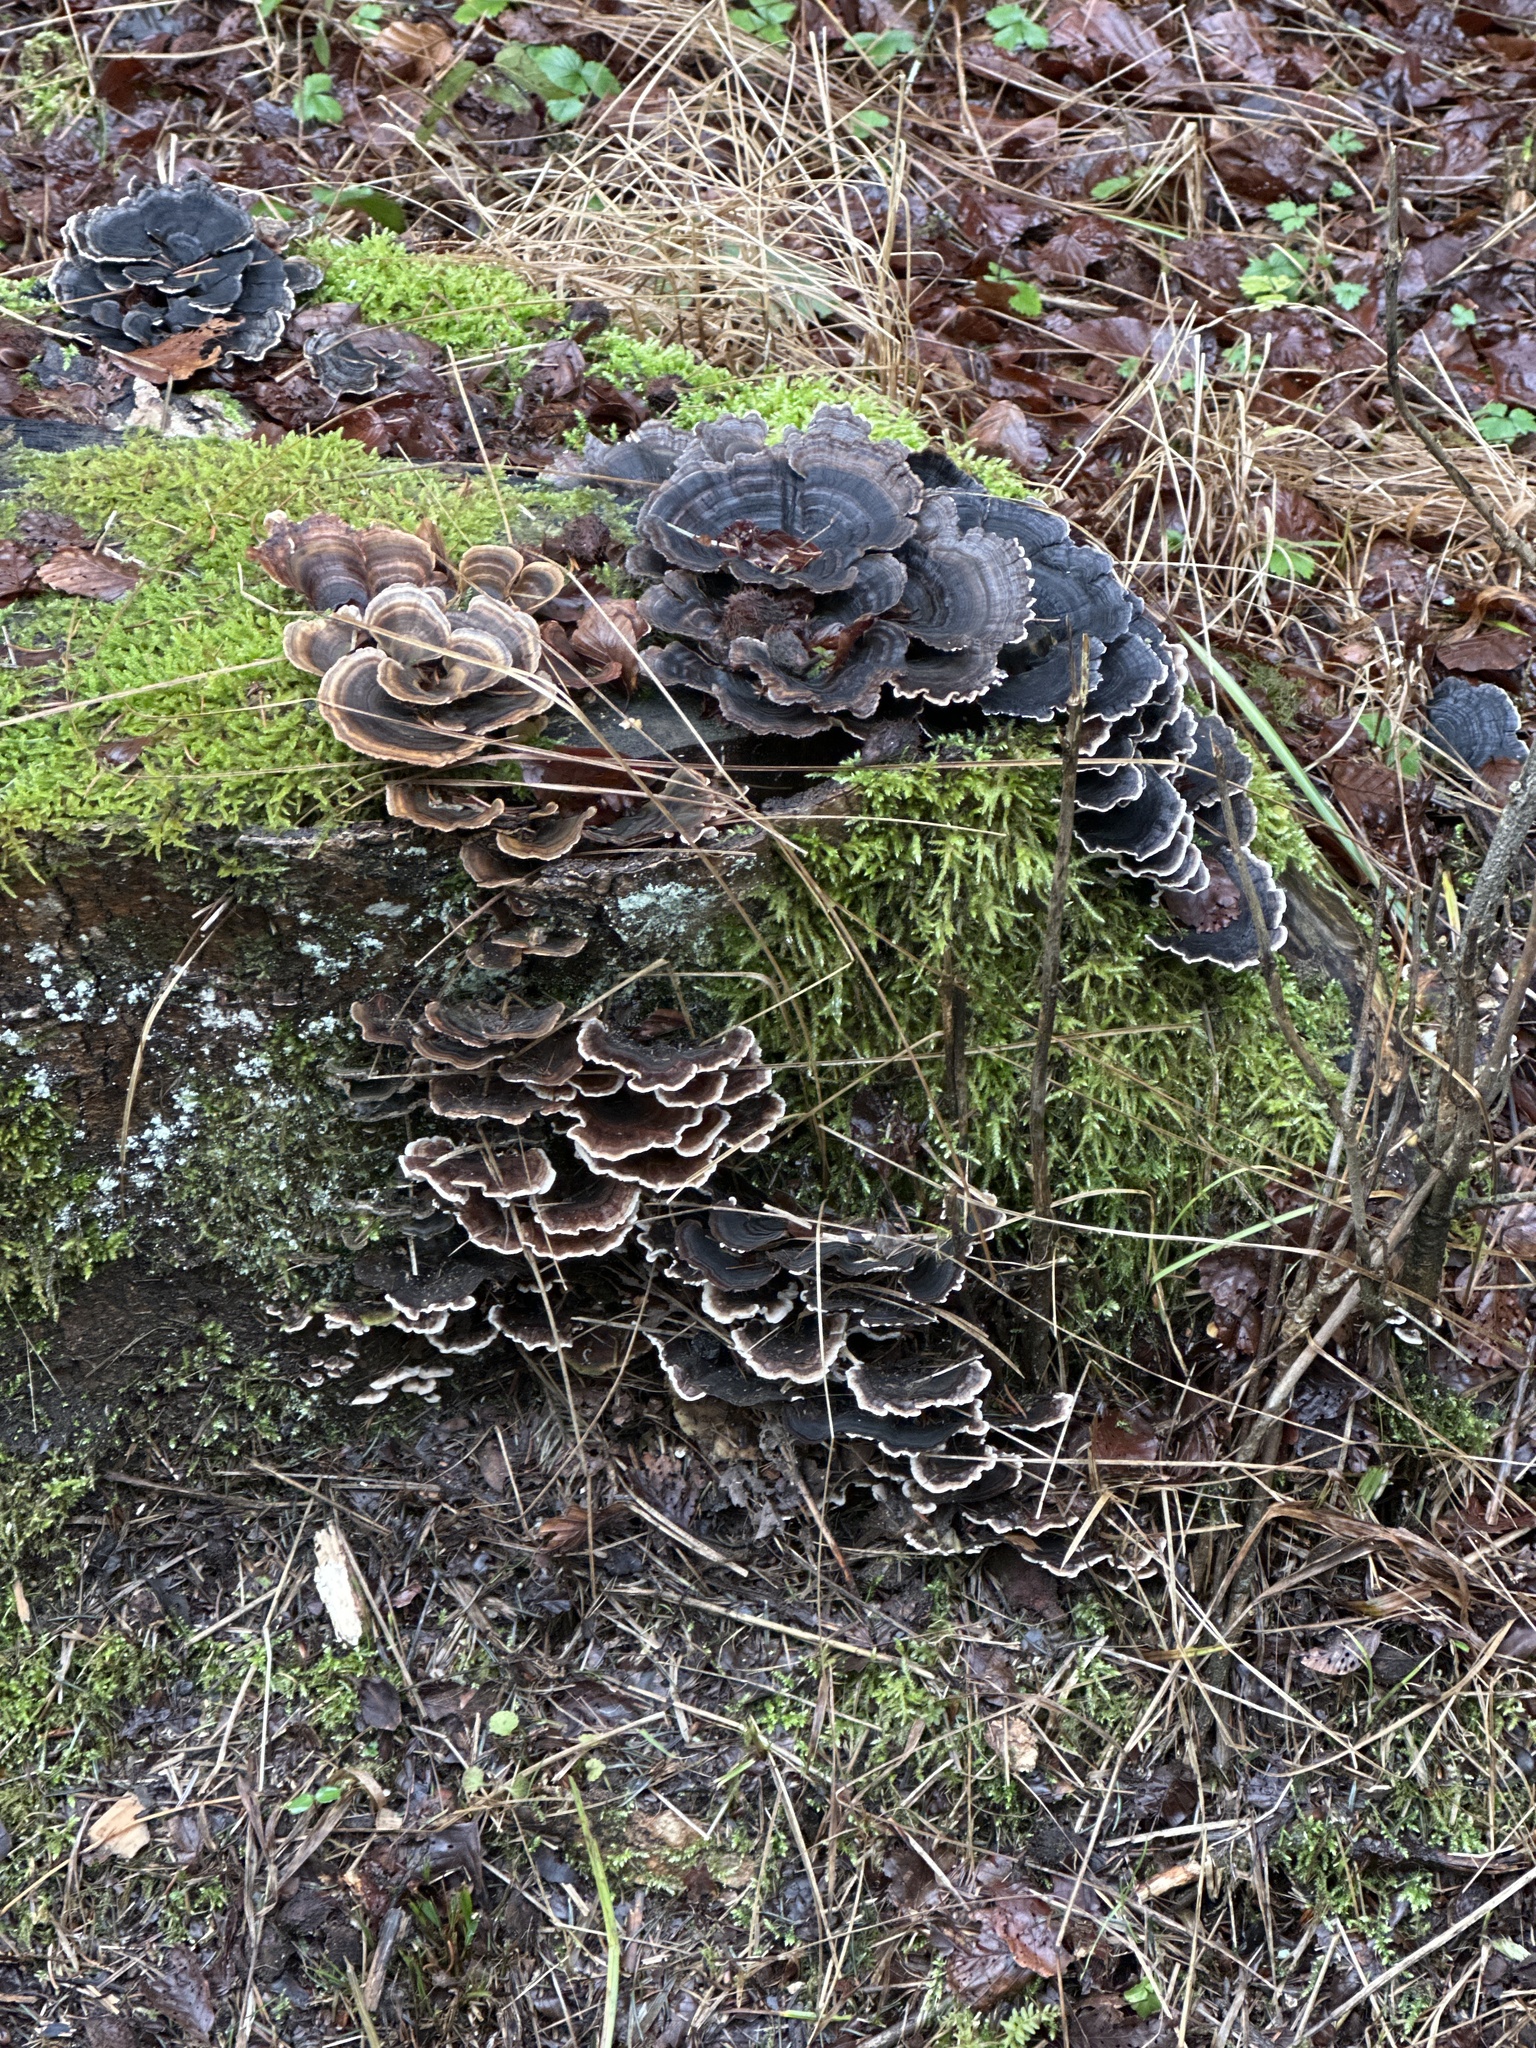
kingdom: Fungi
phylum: Basidiomycota
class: Agaricomycetes
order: Polyporales
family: Polyporaceae
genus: Trametes
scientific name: Trametes versicolor
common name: Turkeytail
